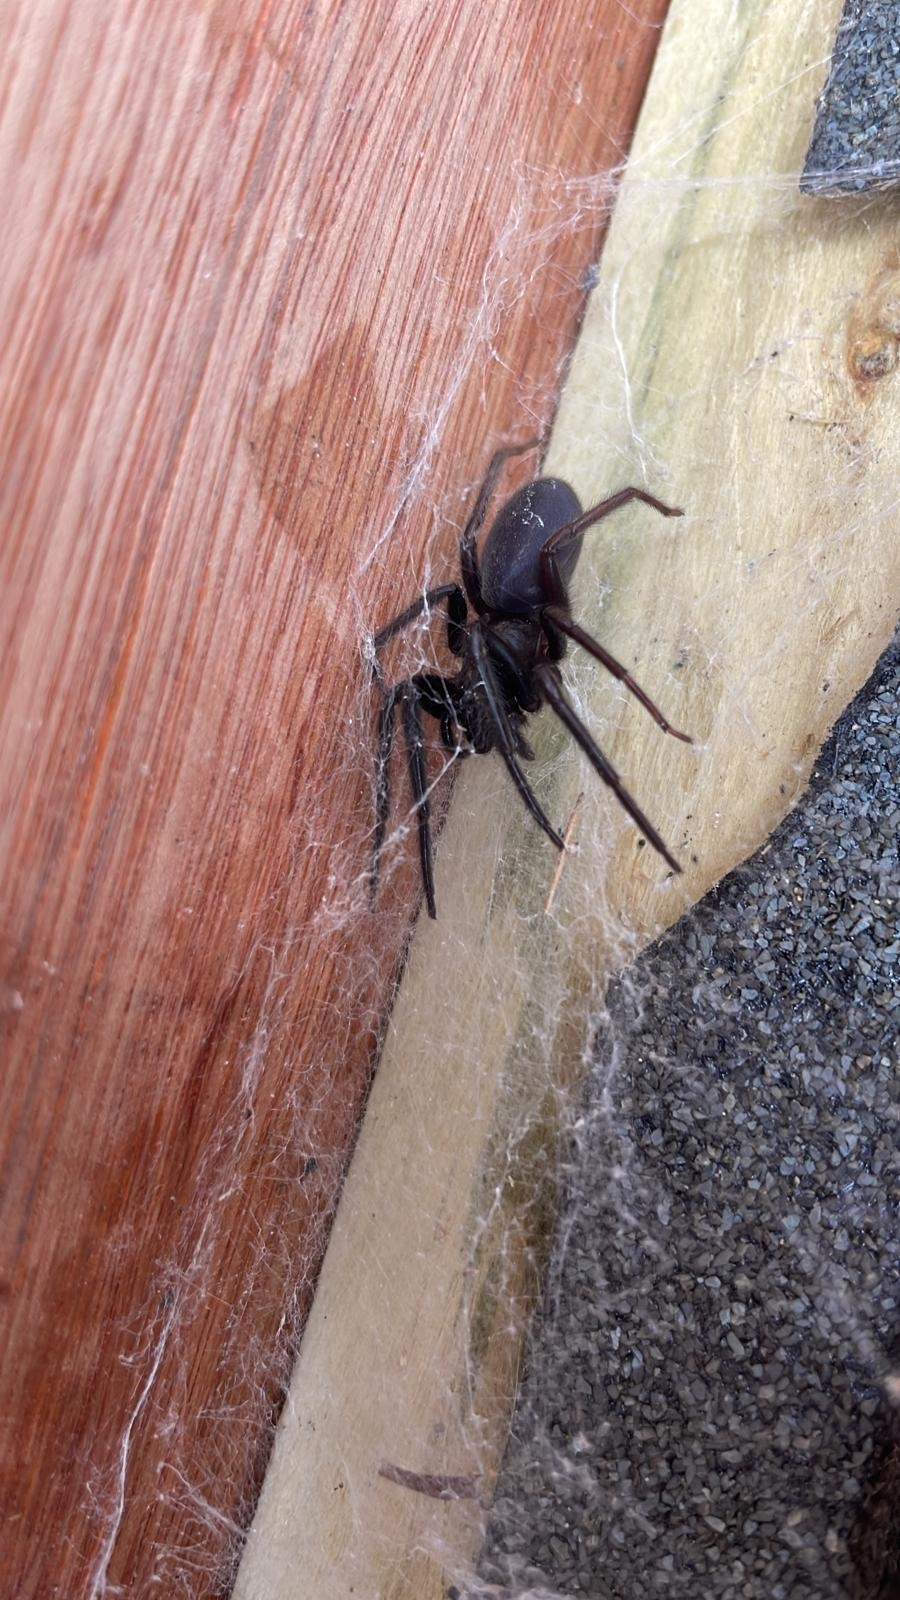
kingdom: Animalia
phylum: Arthropoda
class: Arachnida
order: Araneae
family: Segestriidae
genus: Segestria
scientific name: Segestria florentina
